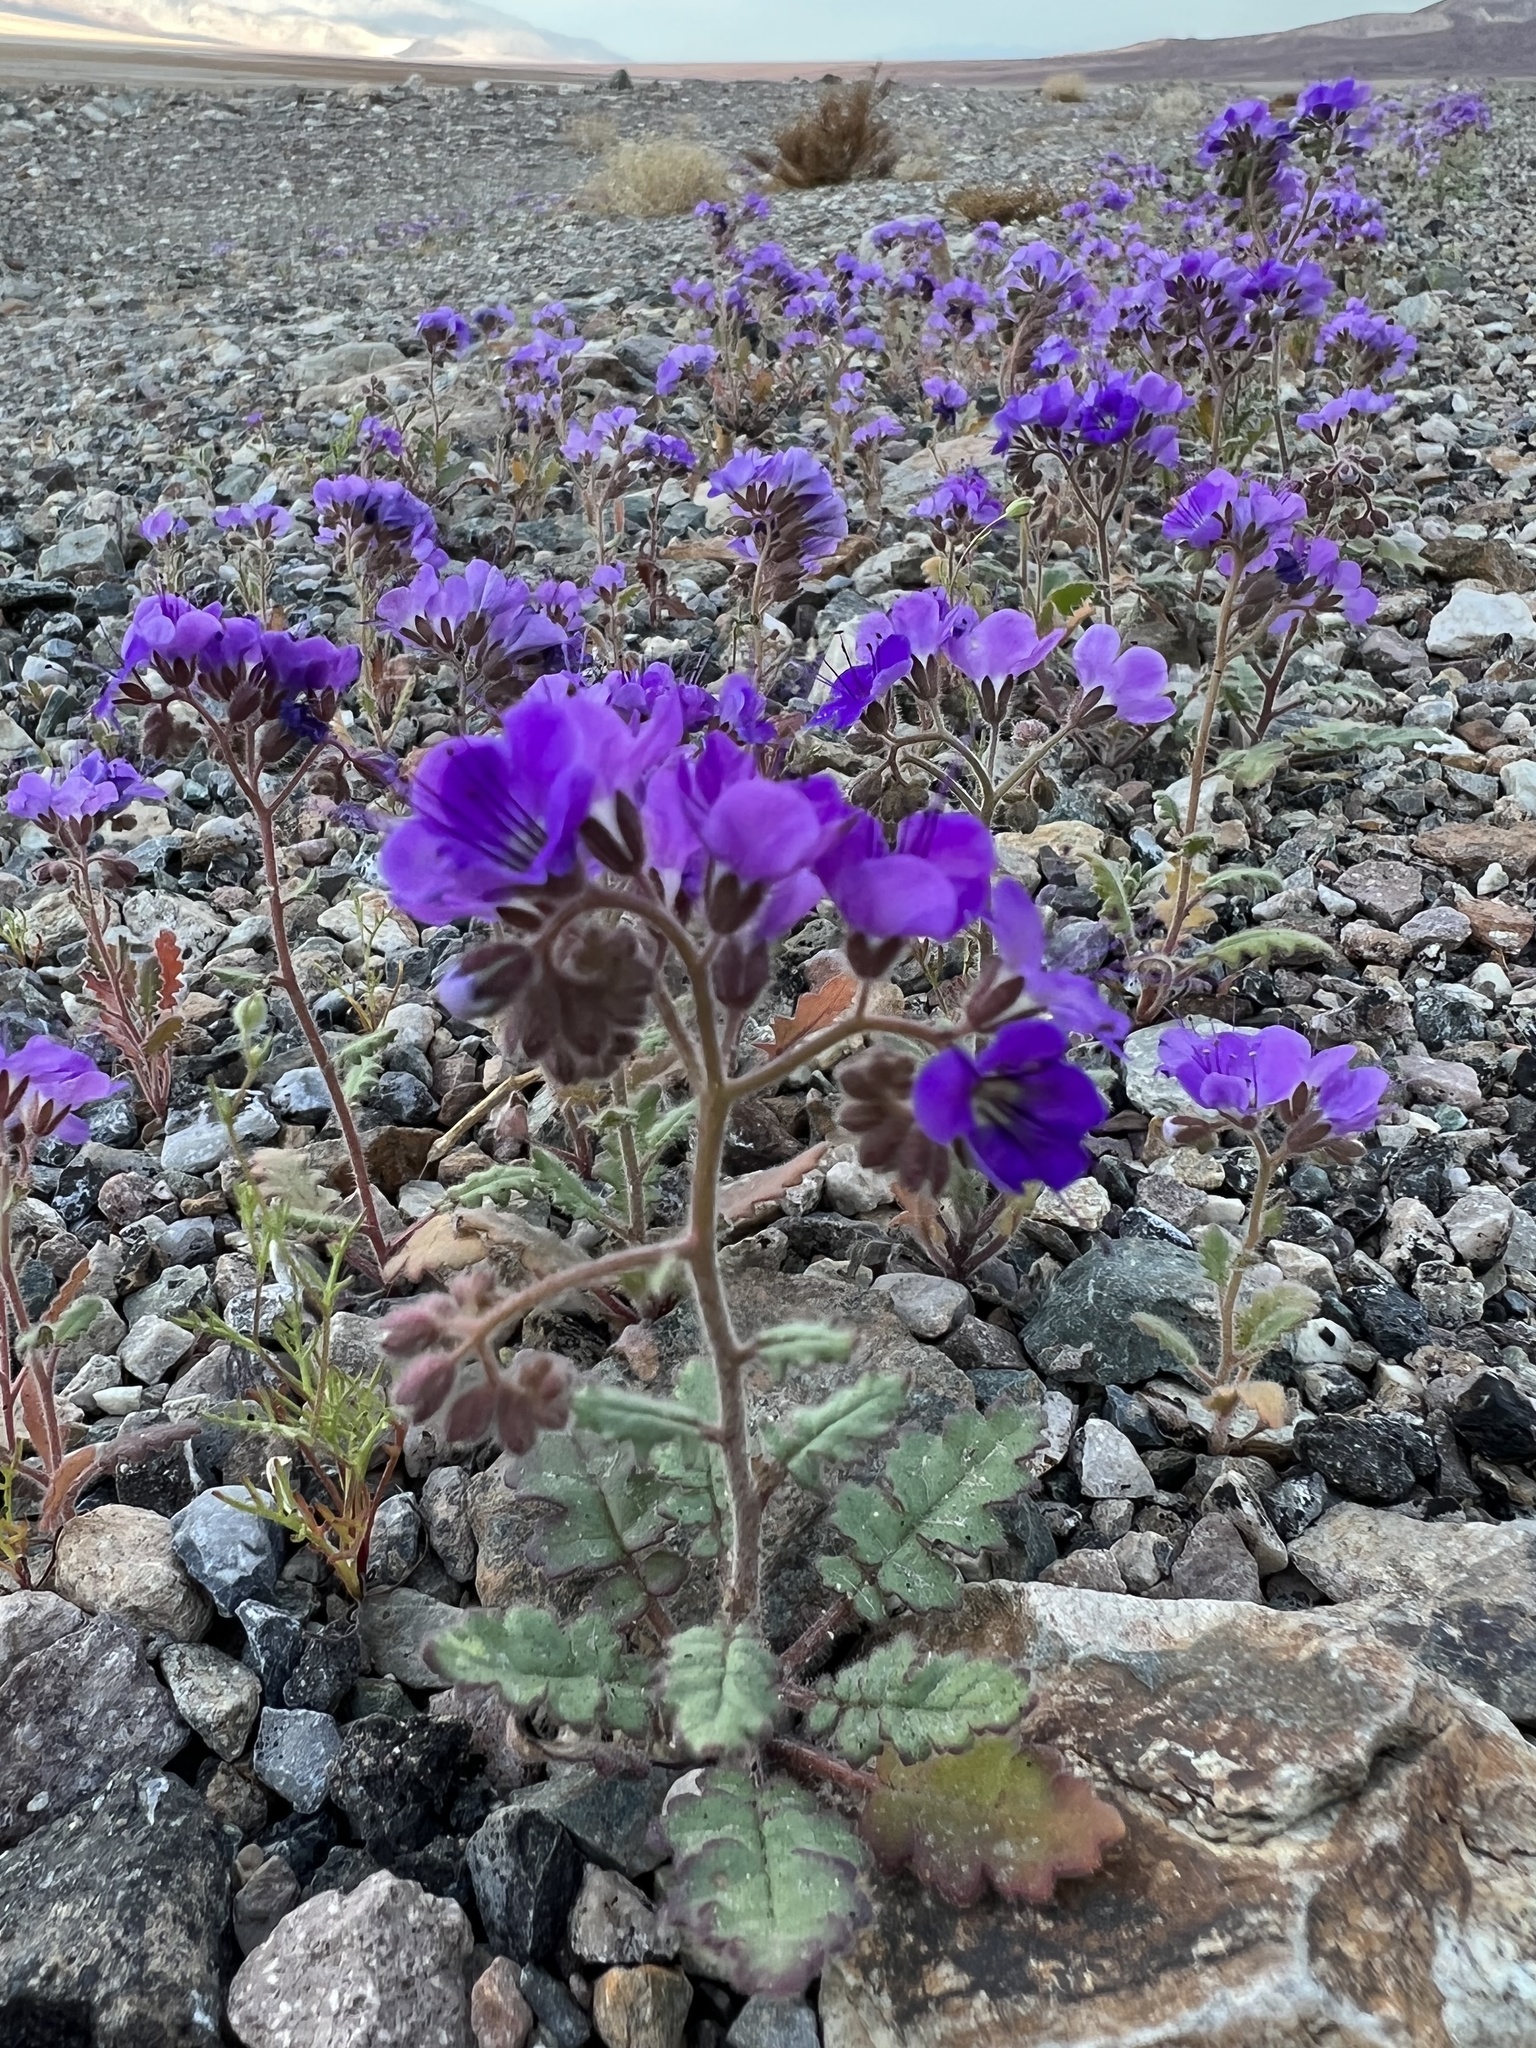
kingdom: Plantae
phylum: Tracheophyta
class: Magnoliopsida
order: Boraginales
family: Hydrophyllaceae
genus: Phacelia
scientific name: Phacelia crenulata
